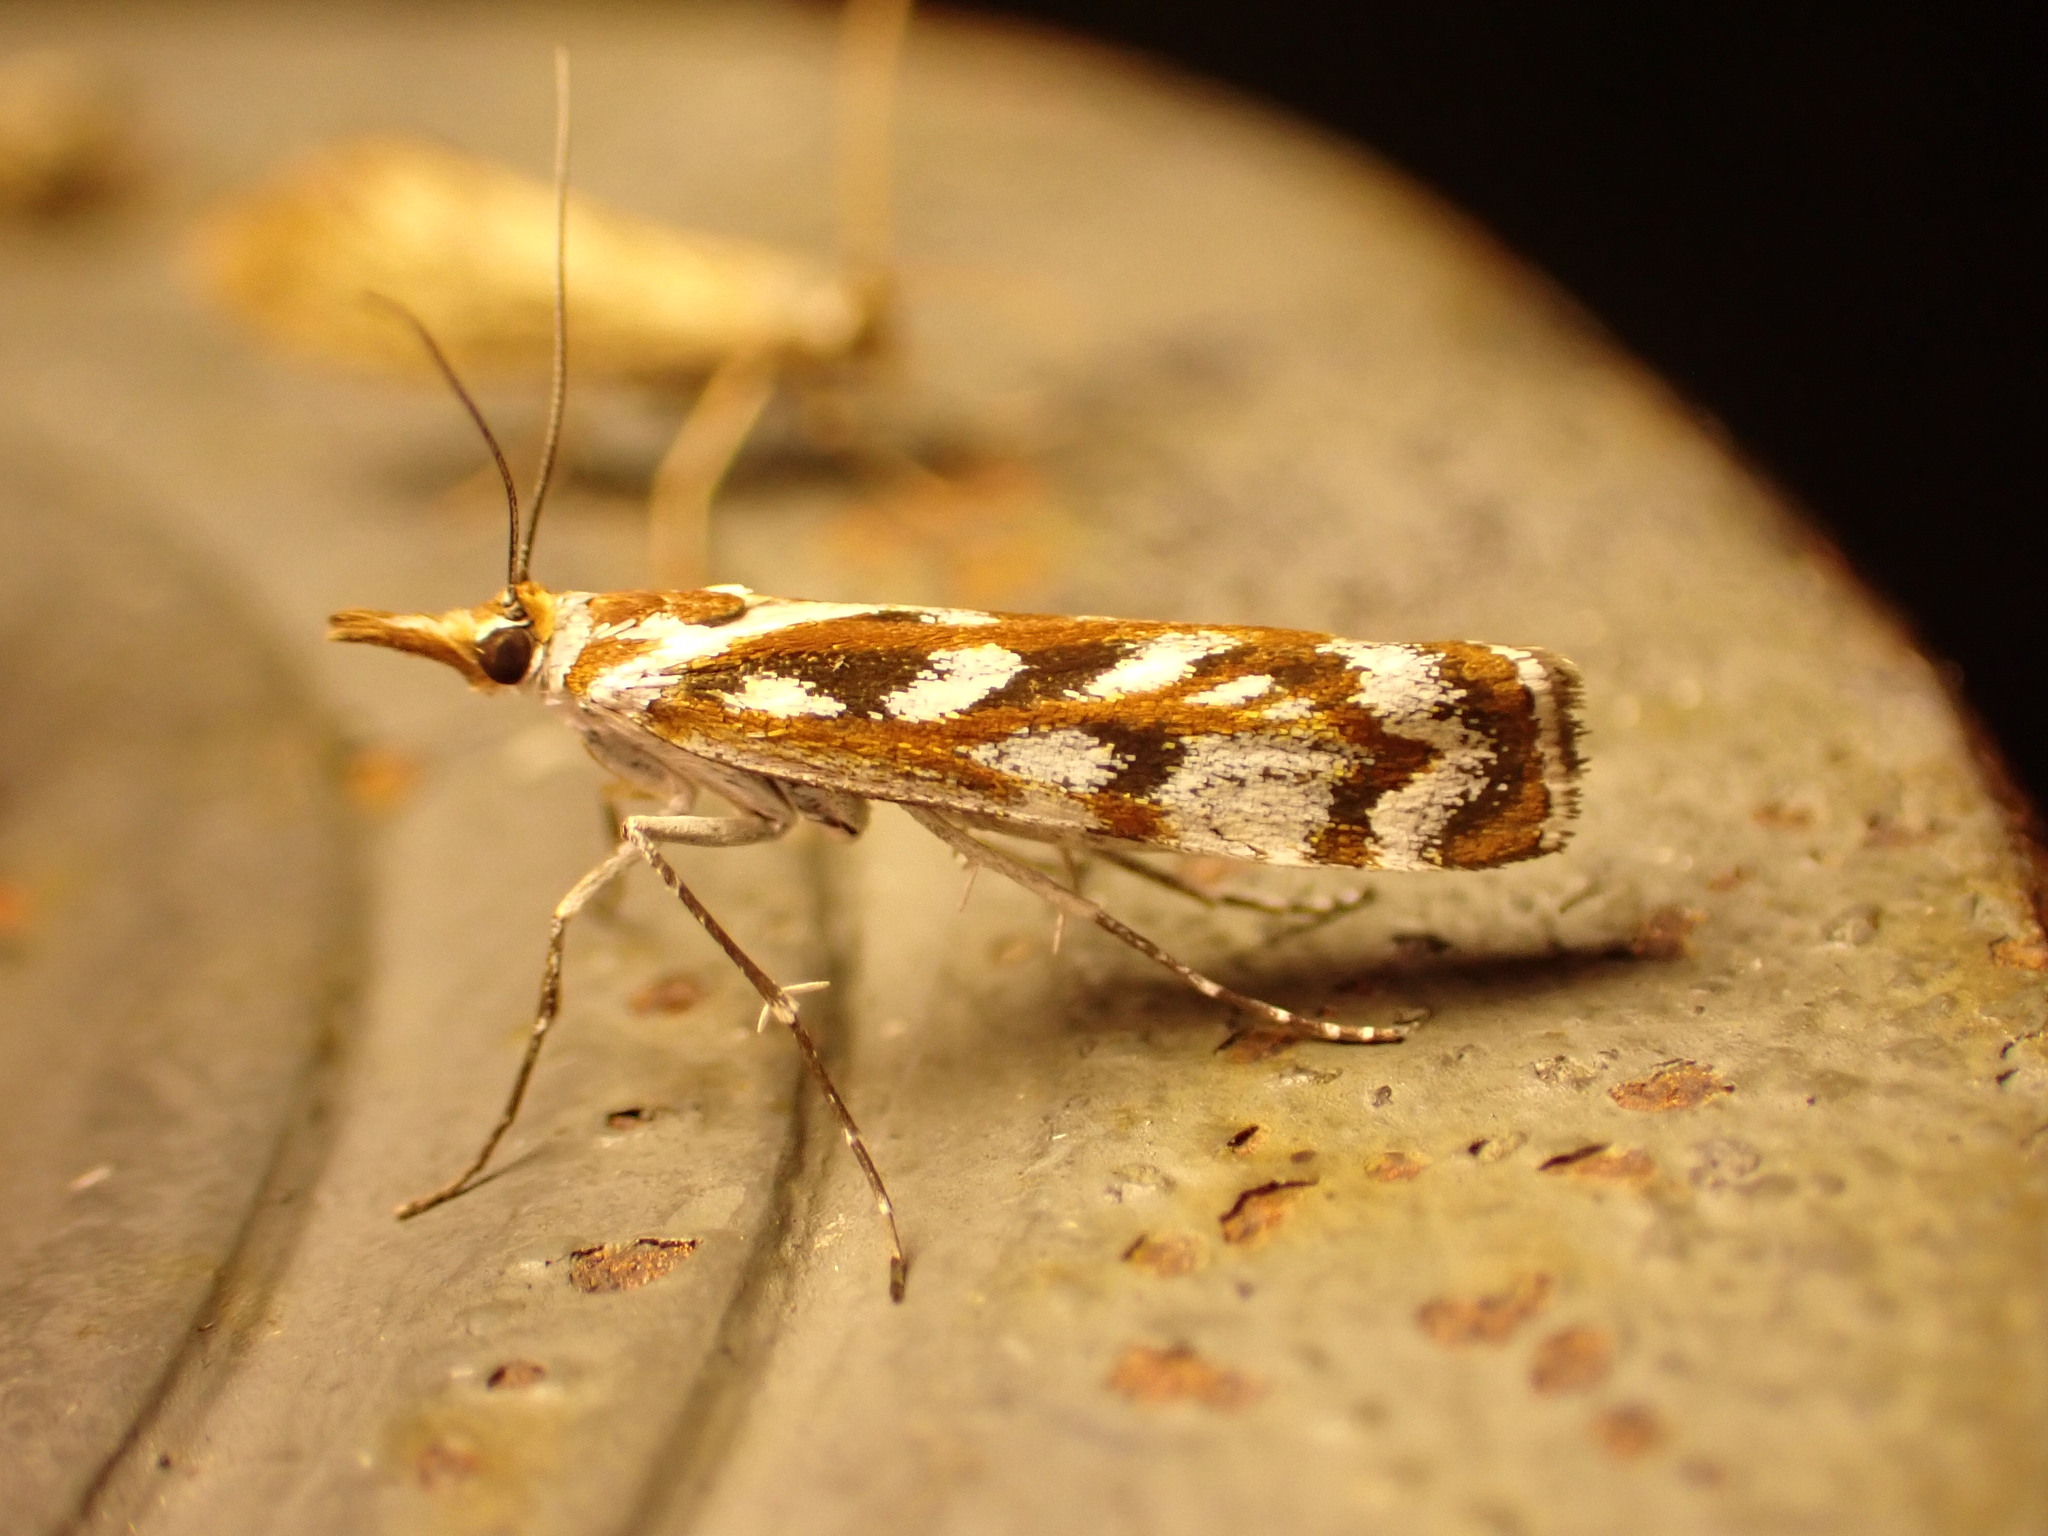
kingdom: Animalia
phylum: Arthropoda
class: Insecta
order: Lepidoptera
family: Crambidae
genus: Orocrambus
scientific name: Orocrambus xanthogrammus
